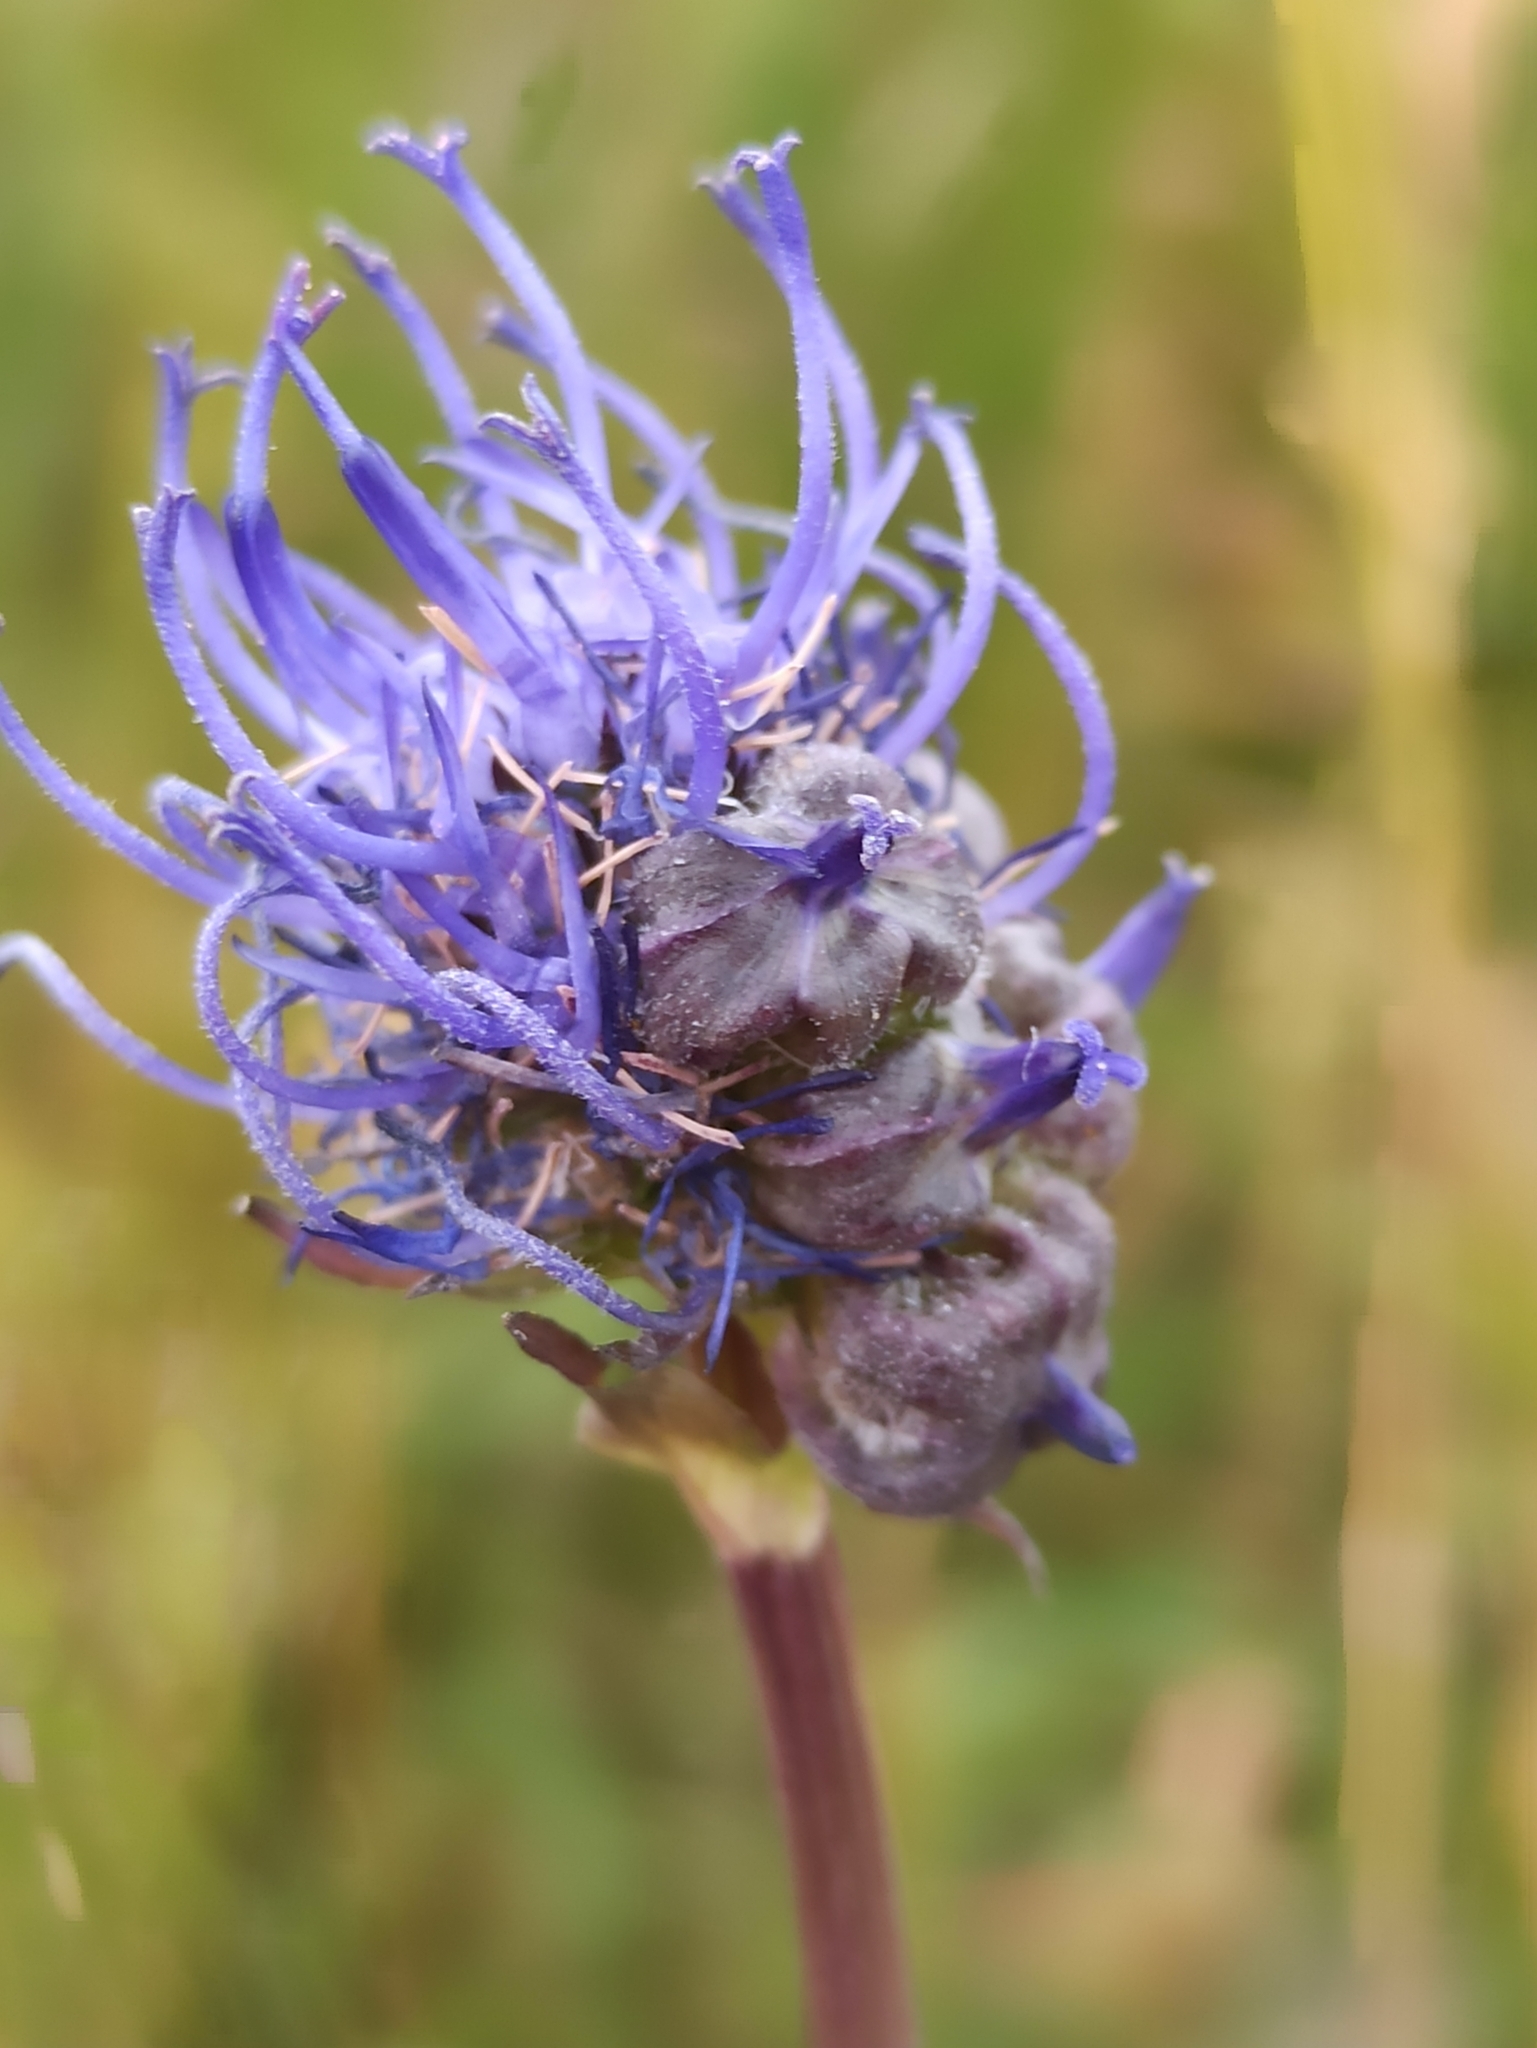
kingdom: Plantae
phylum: Tracheophyta
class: Magnoliopsida
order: Asterales
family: Campanulaceae
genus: Phyteuma
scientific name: Phyteuma orbiculare
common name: Round-headed rampion
